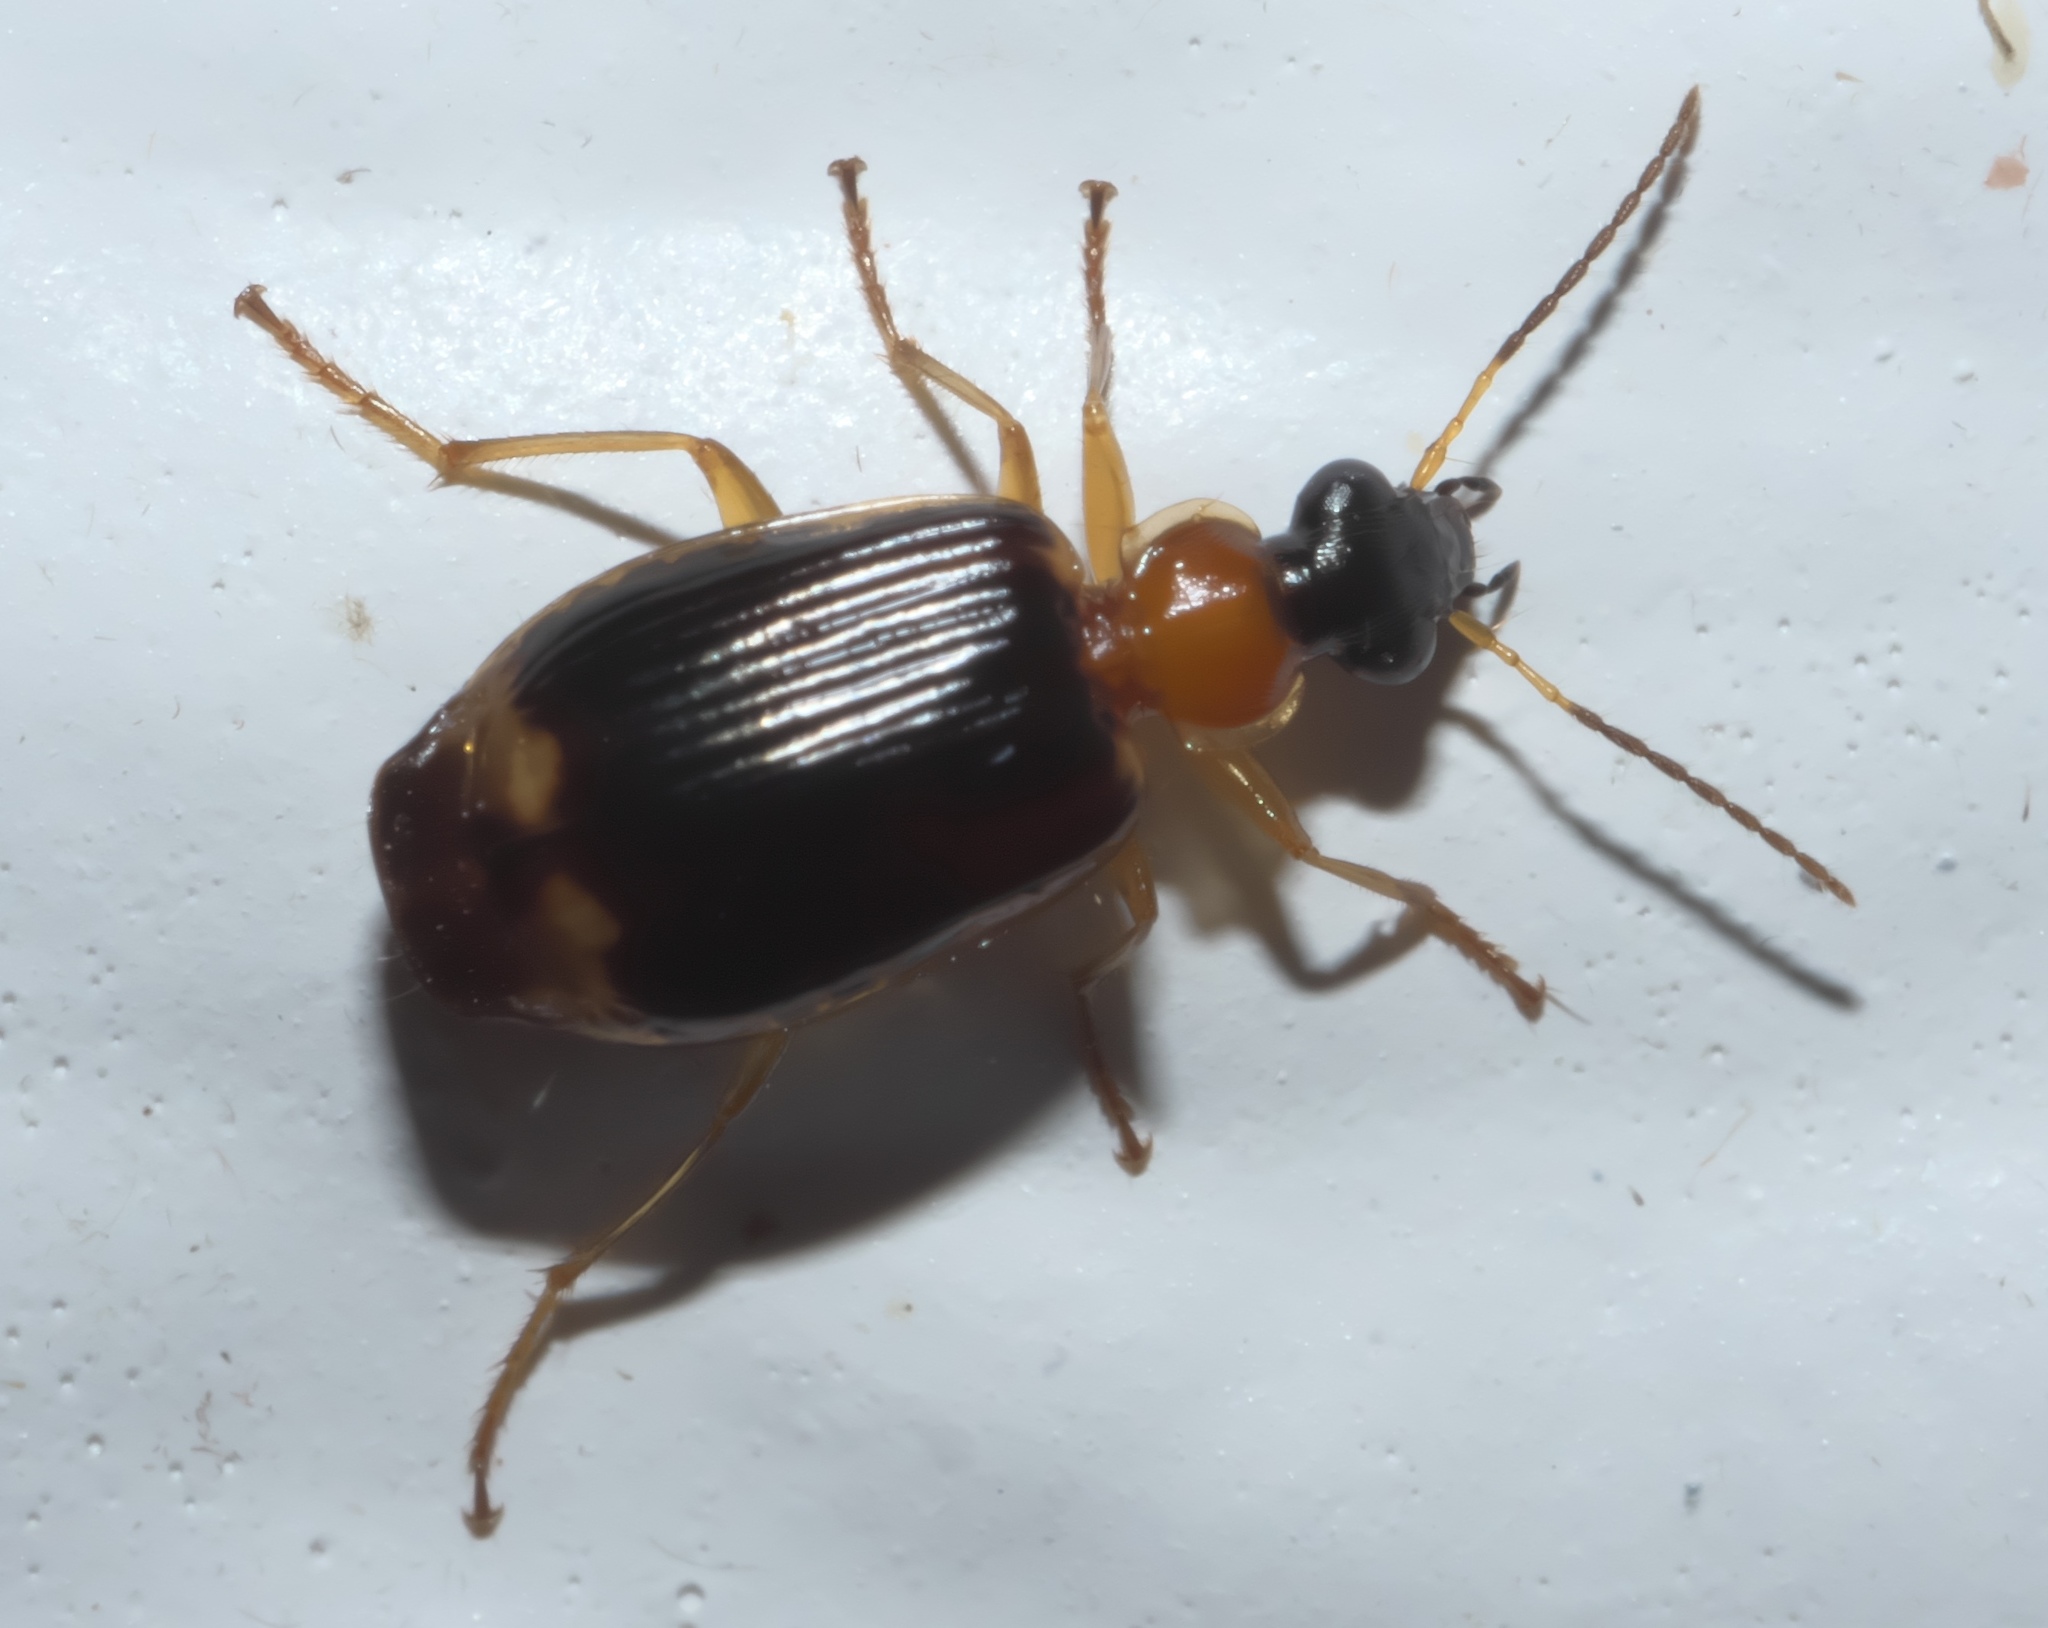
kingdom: Animalia
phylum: Arthropoda
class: Insecta
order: Coleoptera
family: Carabidae
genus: Lebia
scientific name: Lebia analis
